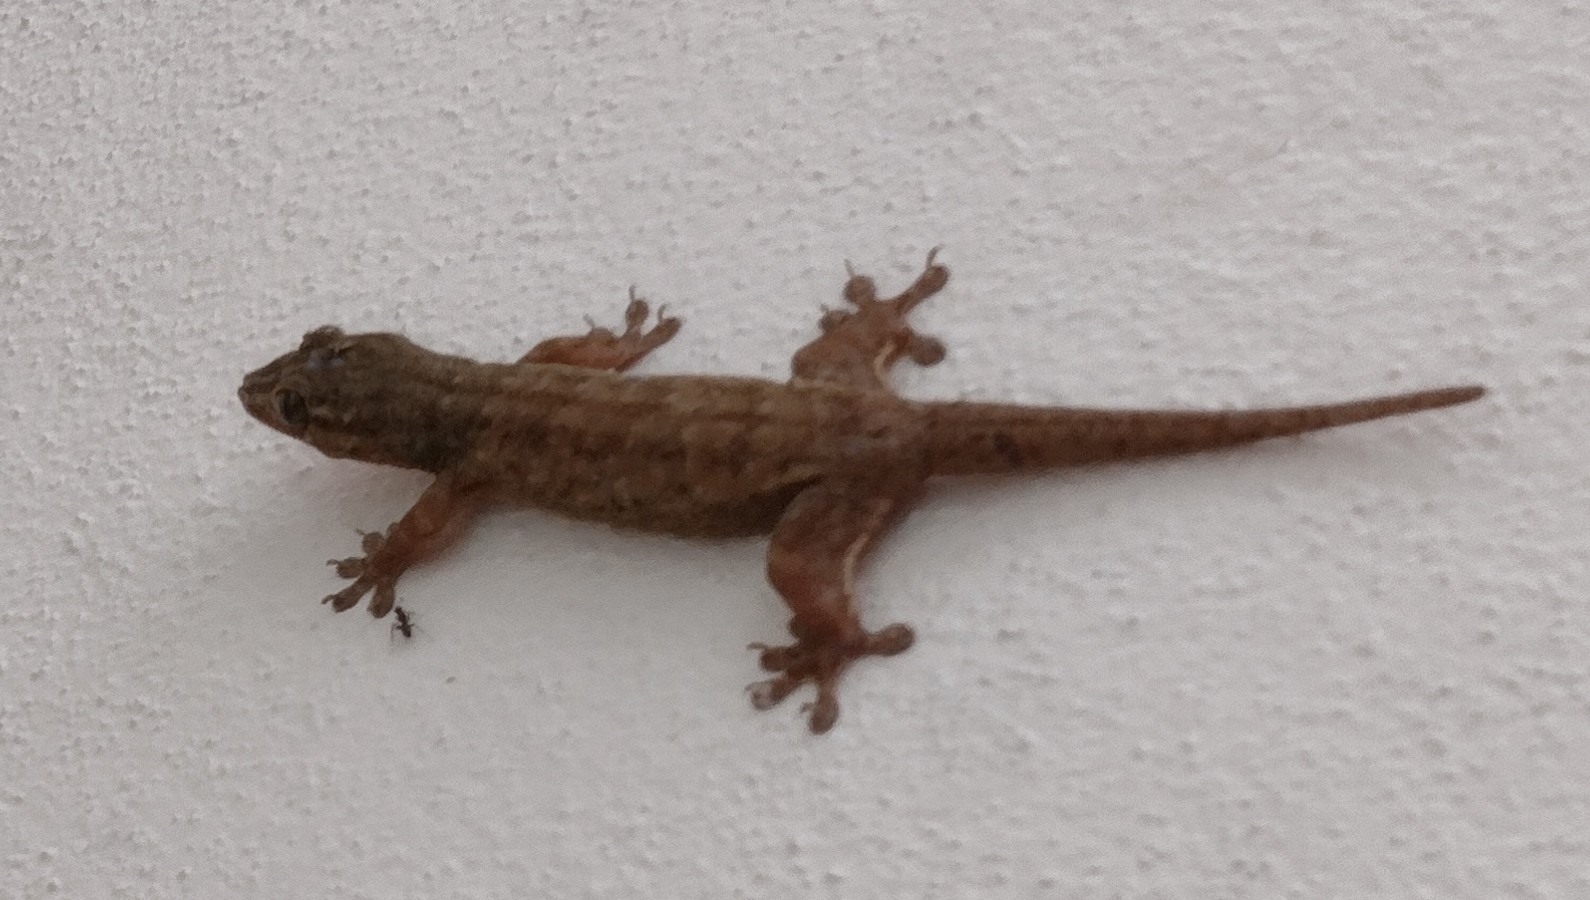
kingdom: Animalia
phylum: Chordata
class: Squamata
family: Gekkonidae
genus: Gehyra
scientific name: Gehyra oceanica
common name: Pacific dtella
